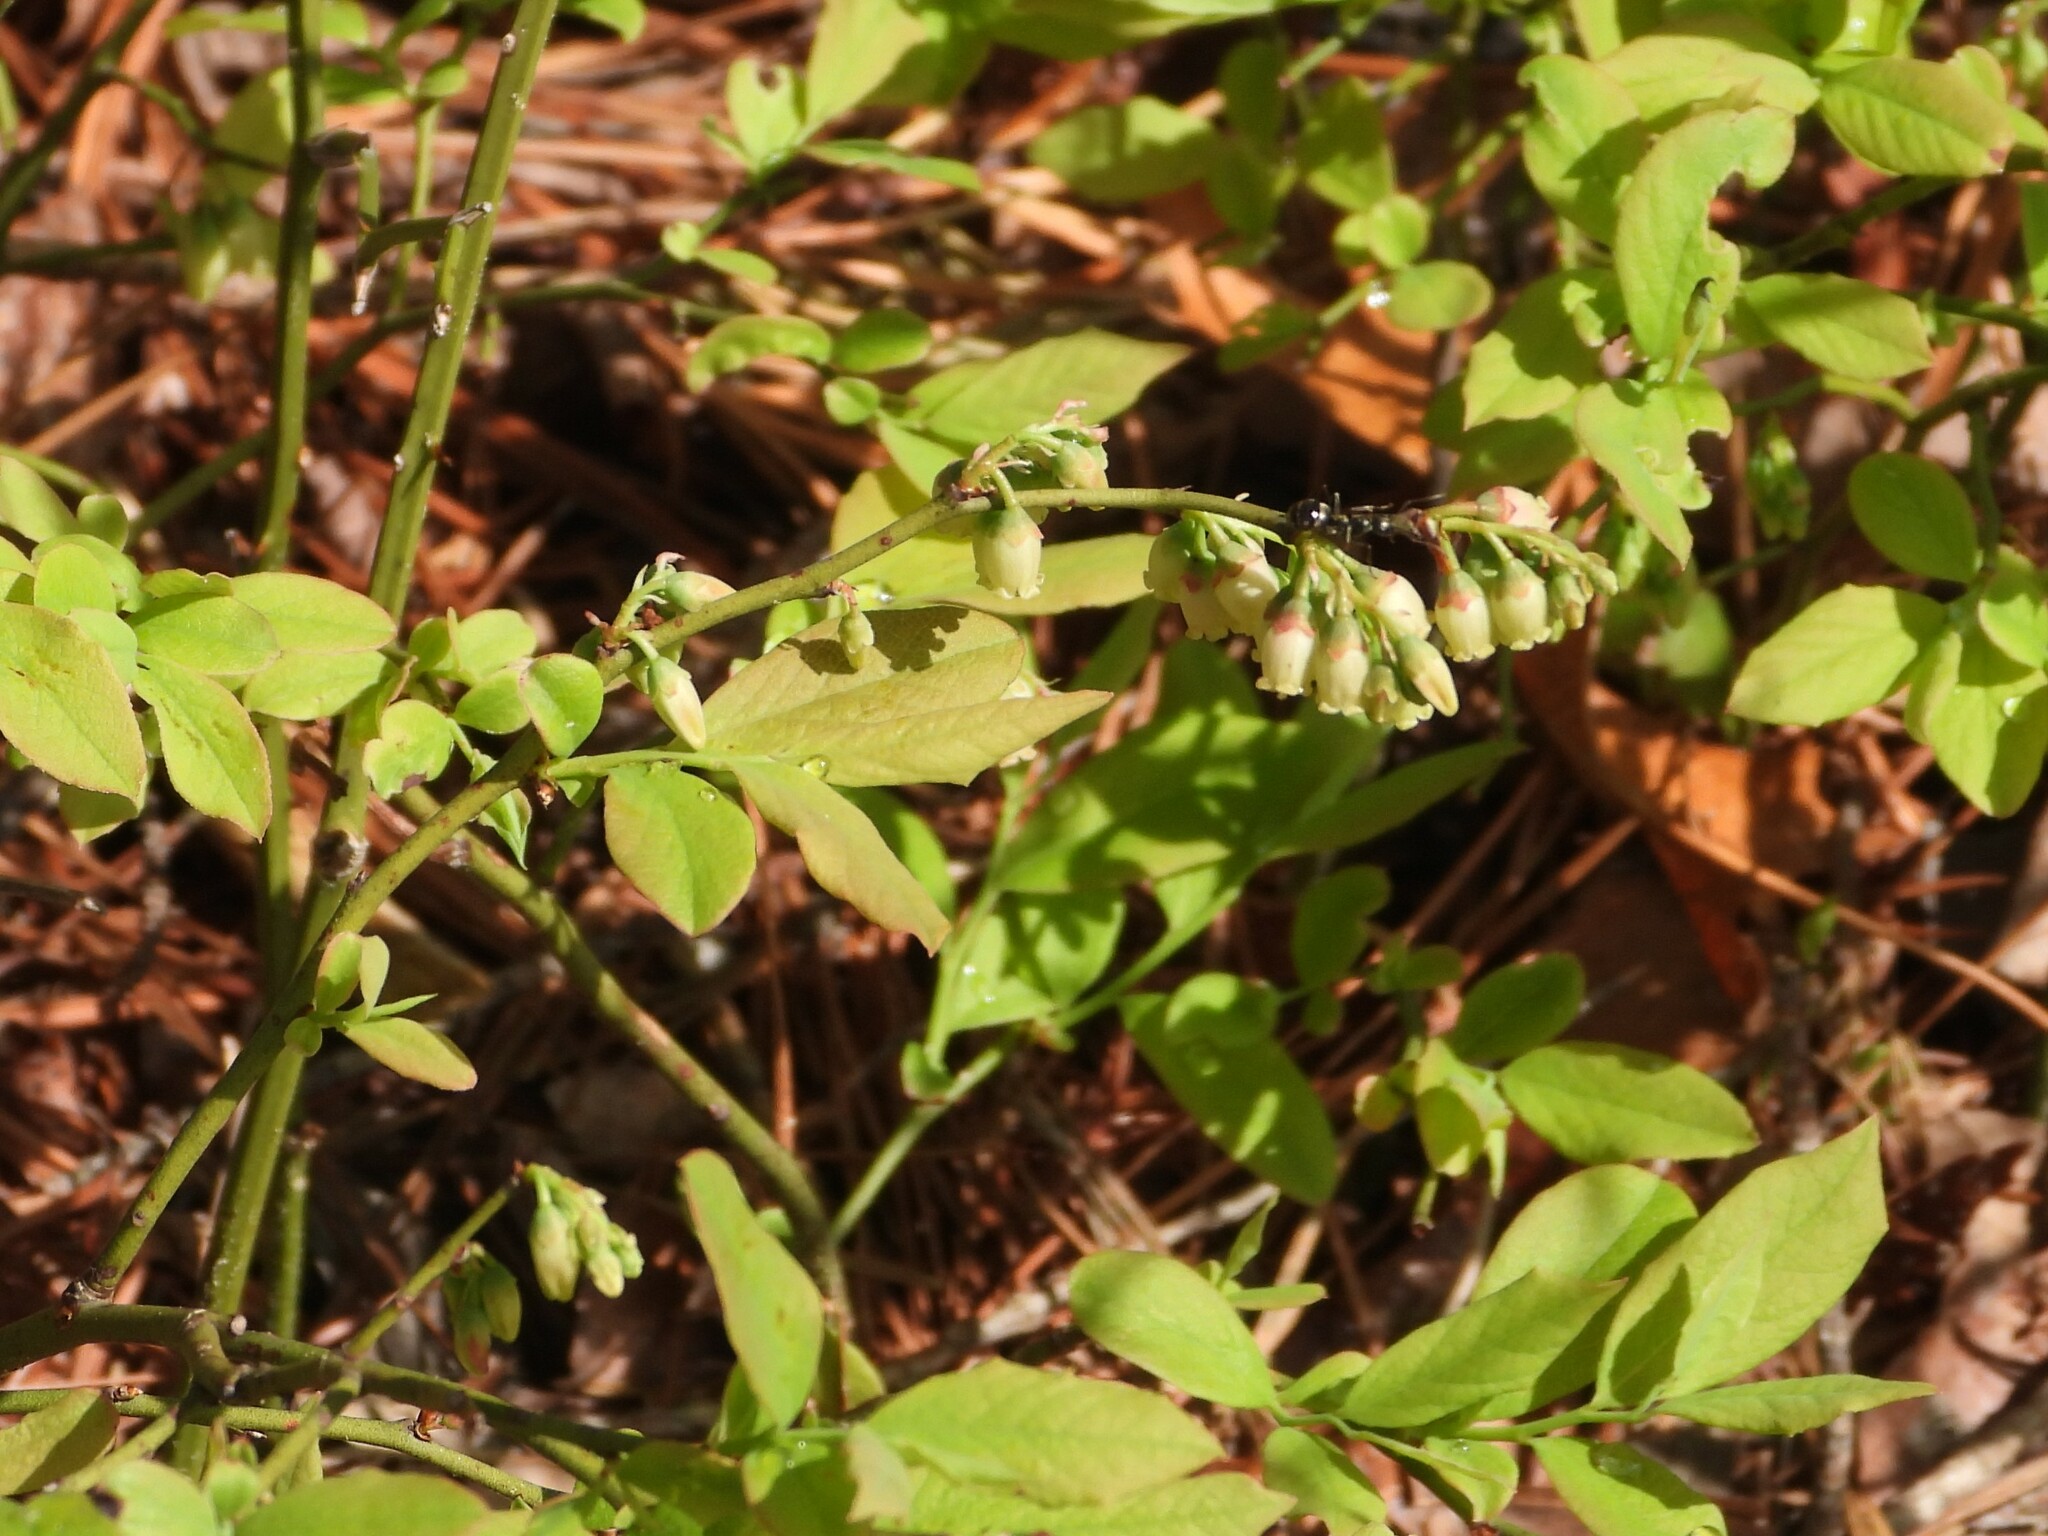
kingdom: Plantae
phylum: Tracheophyta
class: Magnoliopsida
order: Ericales
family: Ericaceae
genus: Vaccinium
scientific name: Vaccinium pallidum
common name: Blue ridge blueberry
